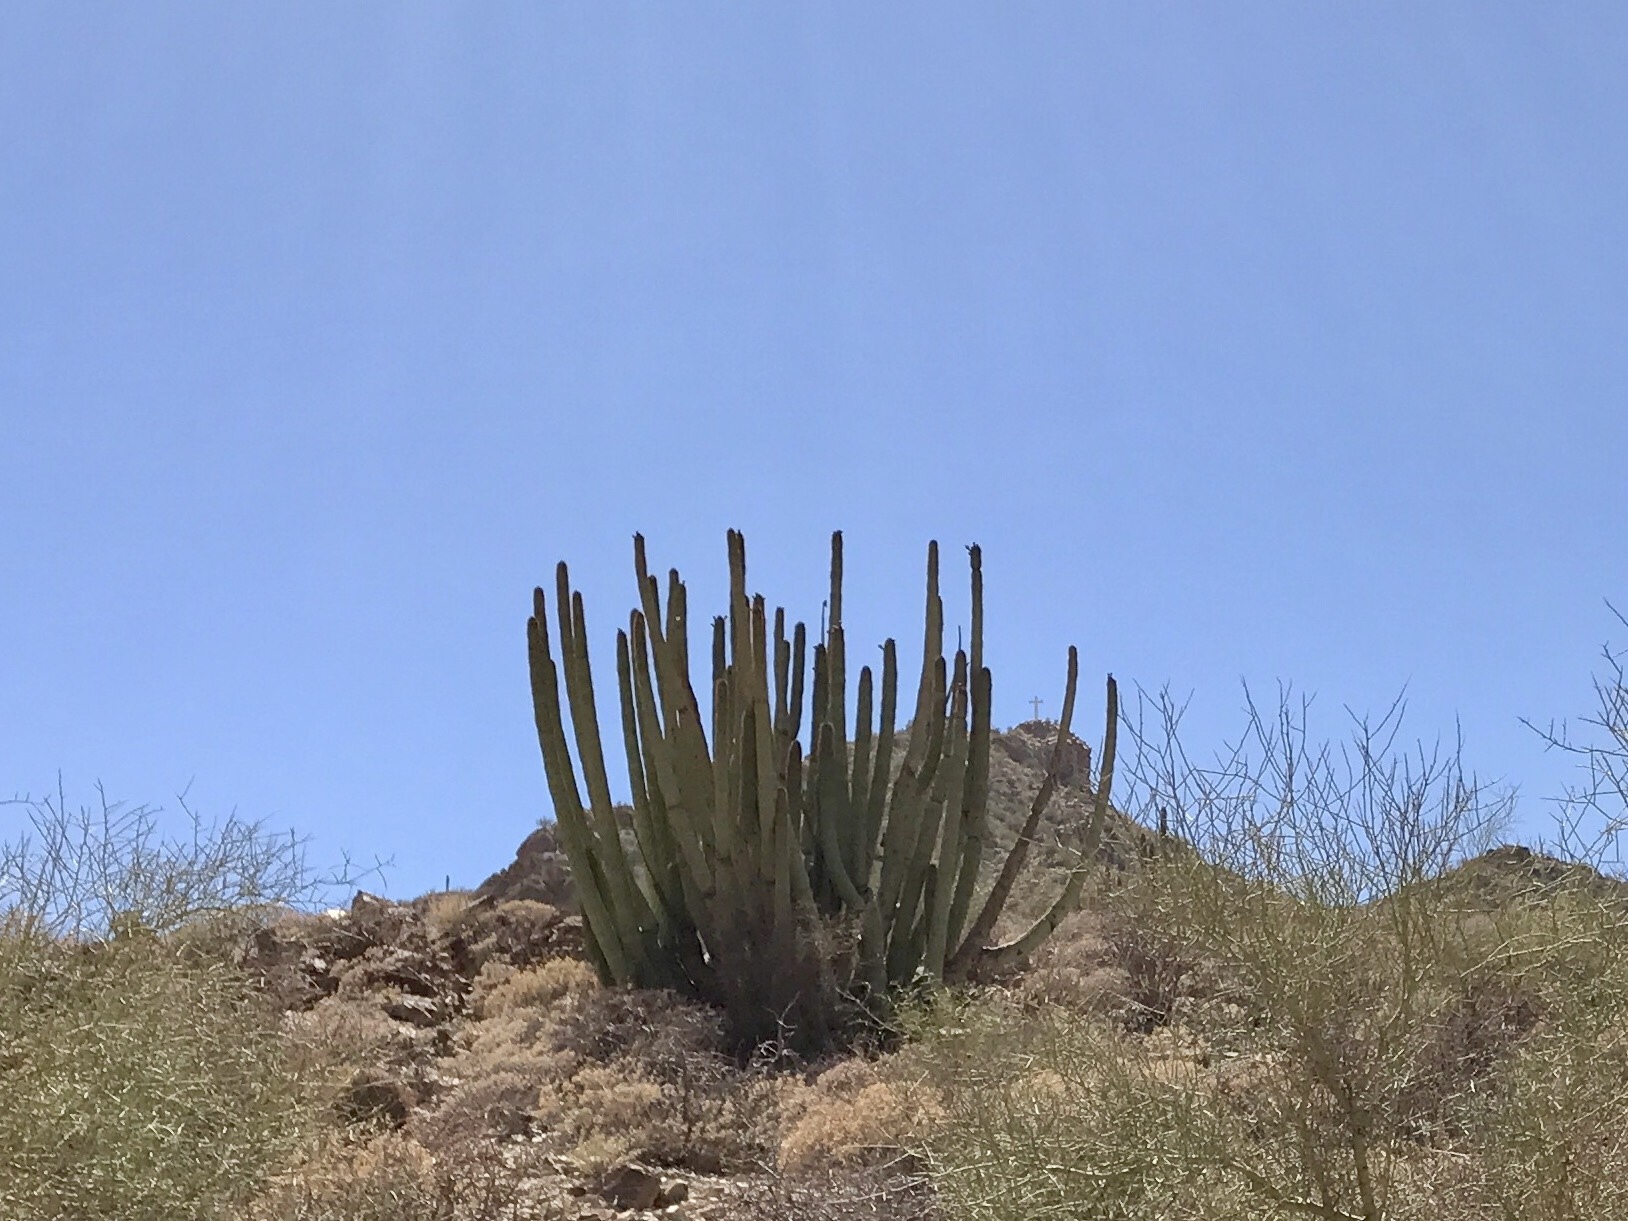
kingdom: Plantae
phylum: Tracheophyta
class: Magnoliopsida
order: Caryophyllales
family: Cactaceae
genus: Stenocereus
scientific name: Stenocereus thurberi
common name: Organ pipe cactus
